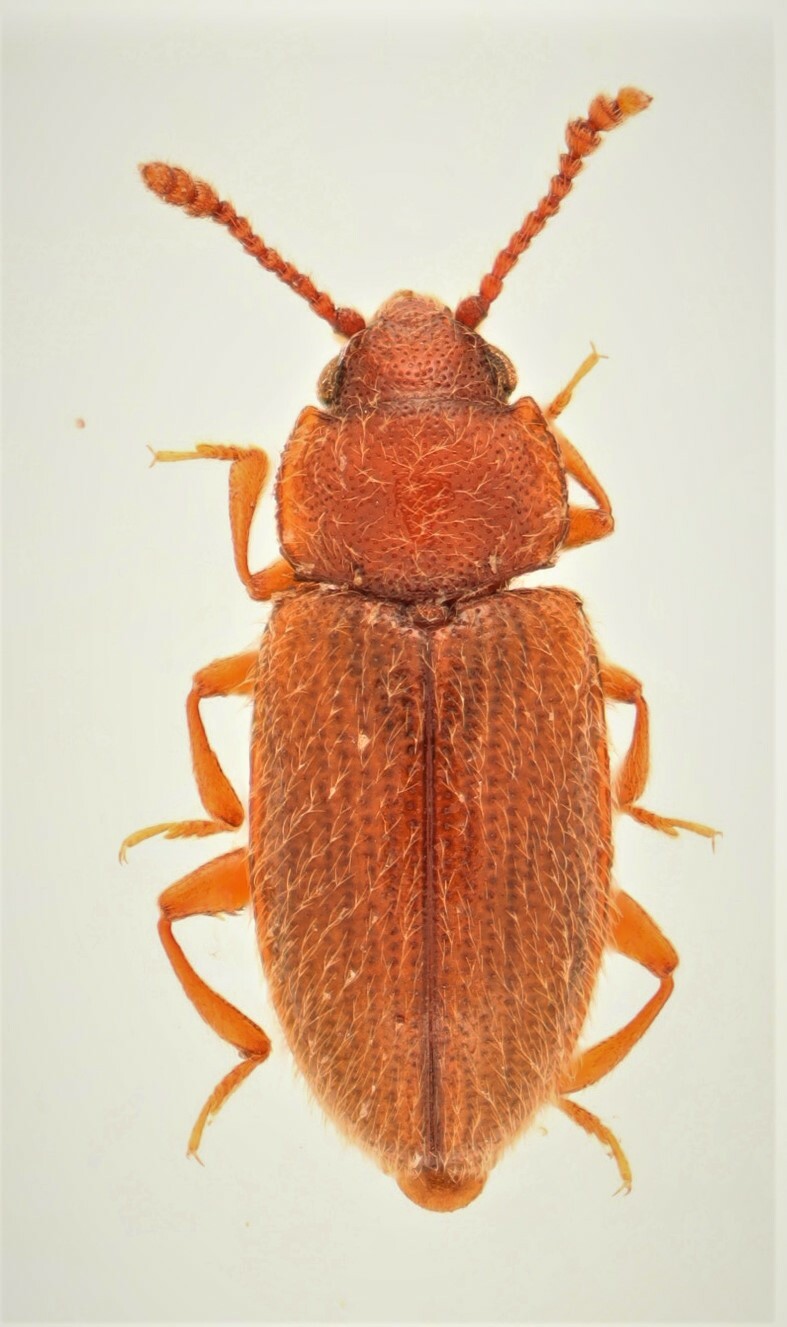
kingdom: Animalia
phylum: Arthropoda
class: Insecta
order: Coleoptera
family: Erotylidae
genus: Cryptophilus
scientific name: Cryptophilus obliteratus
